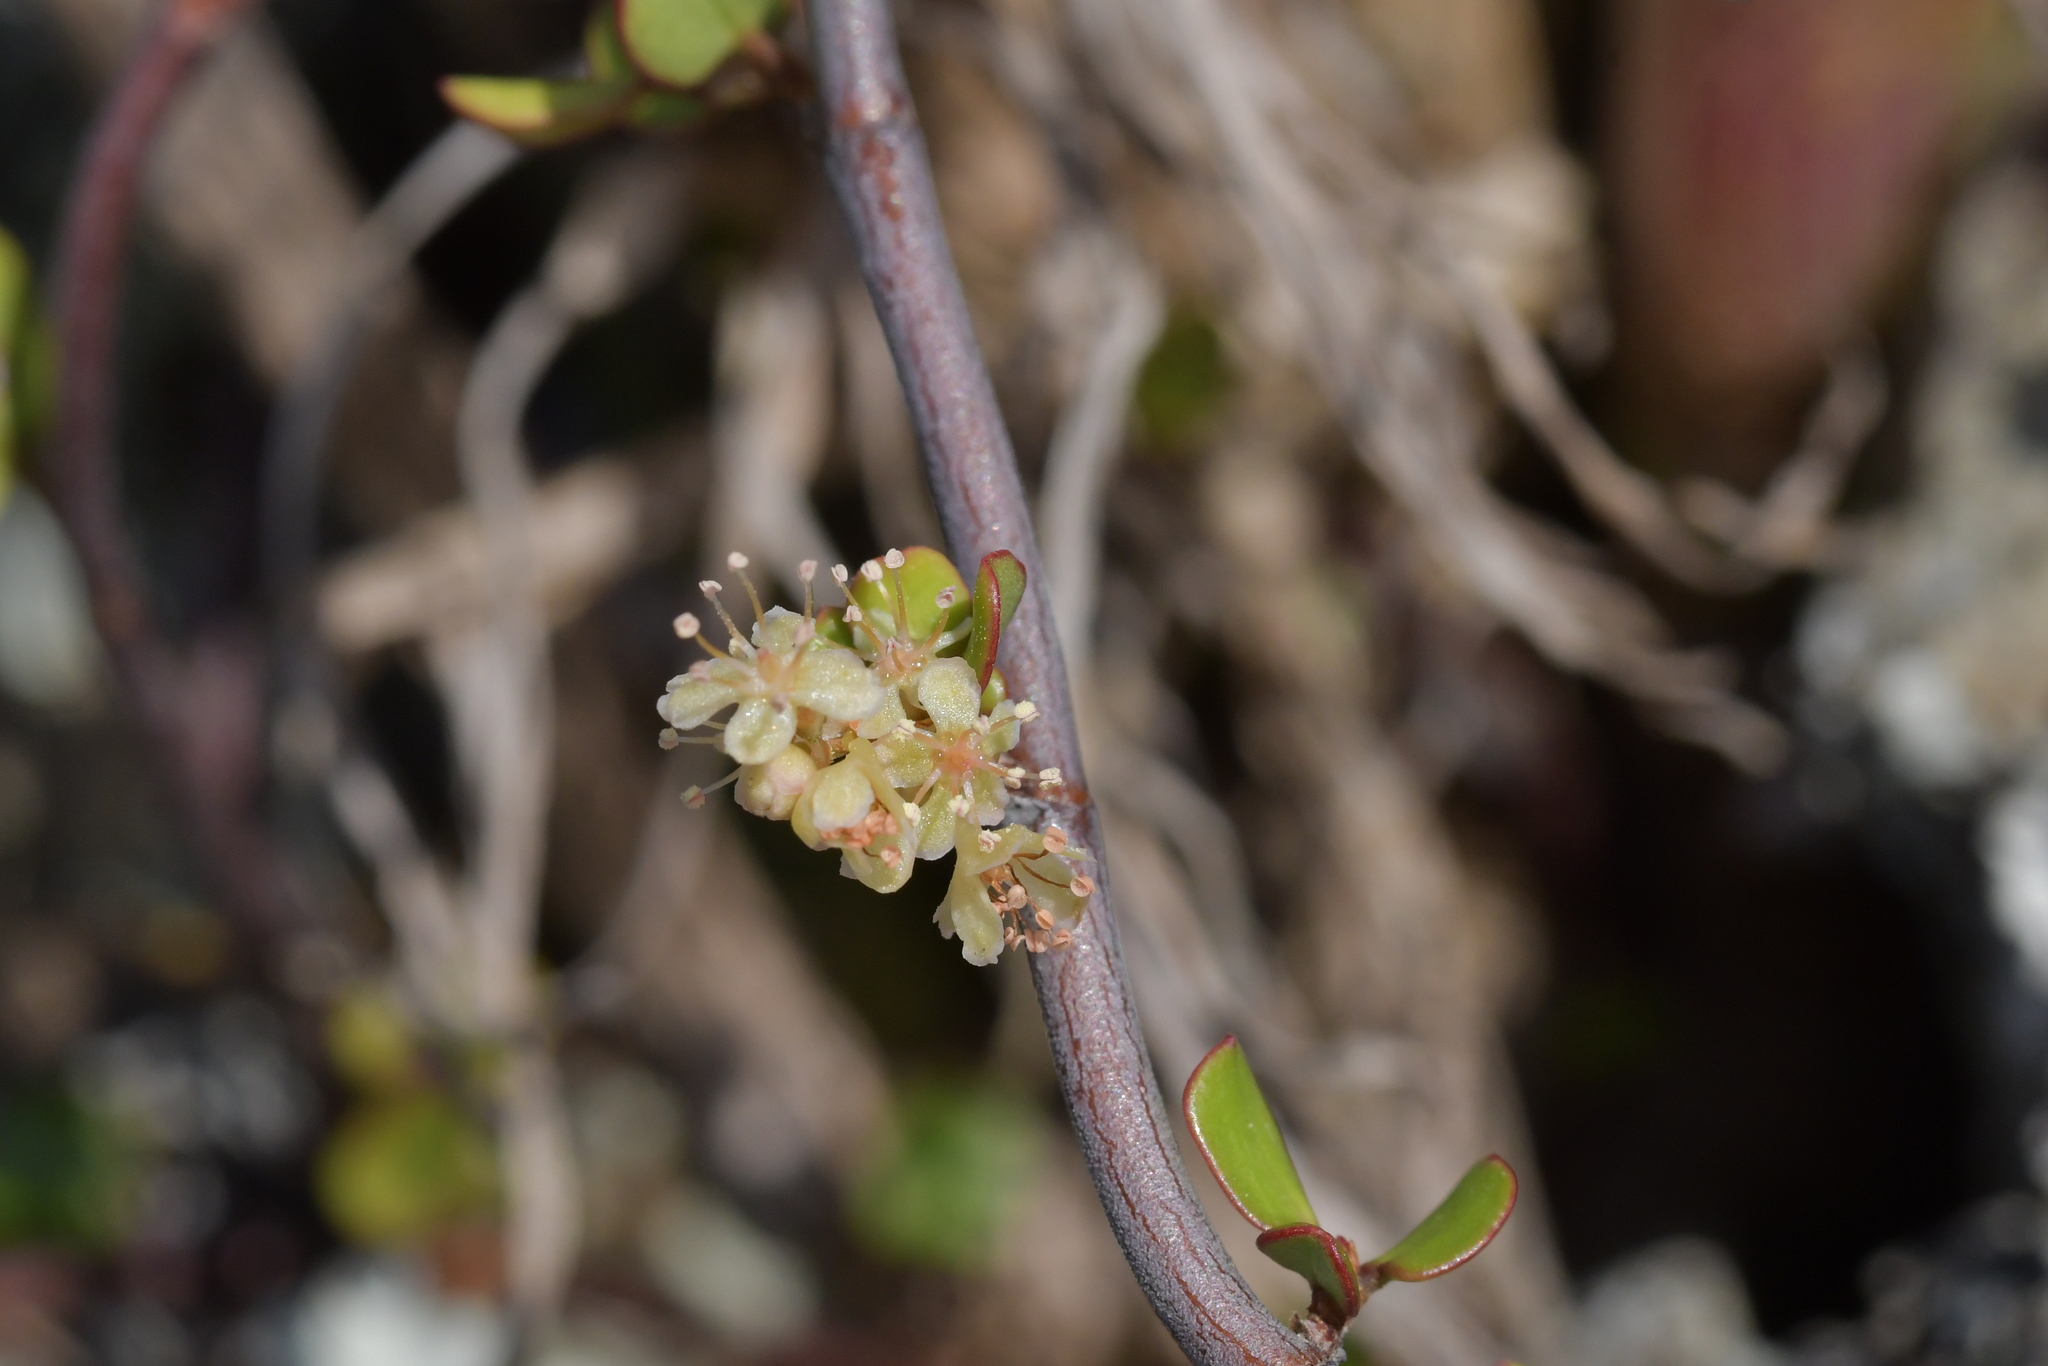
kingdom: Plantae
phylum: Tracheophyta
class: Magnoliopsida
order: Caryophyllales
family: Polygonaceae
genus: Muehlenbeckia
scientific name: Muehlenbeckia complexa
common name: Wireplant
